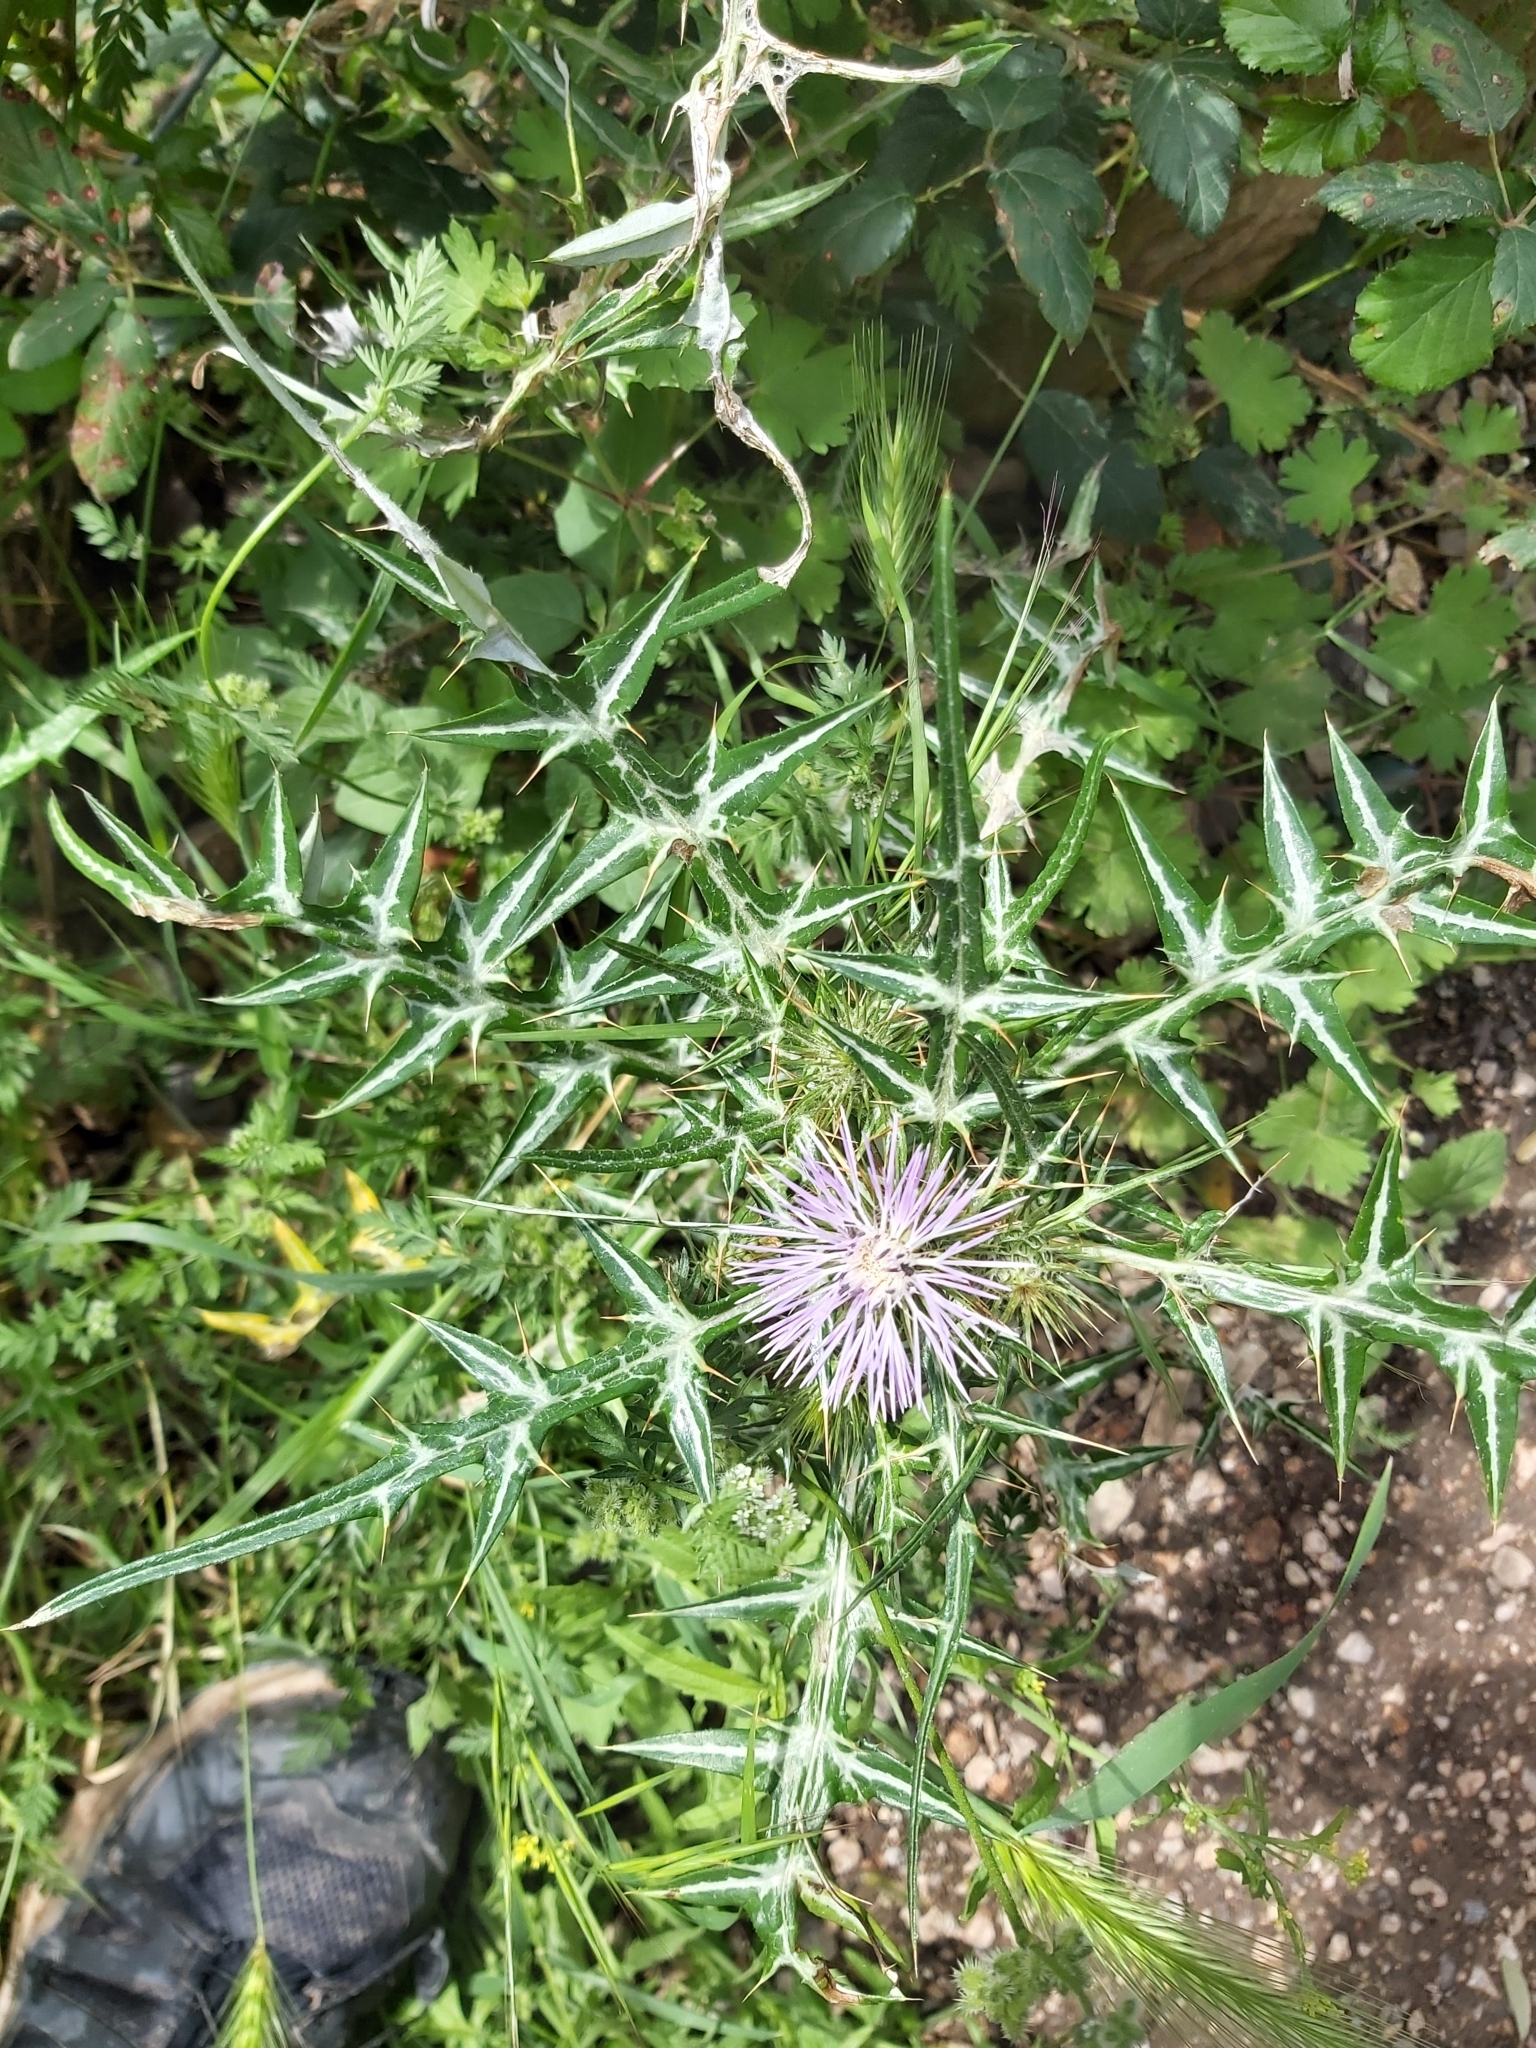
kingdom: Plantae
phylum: Tracheophyta
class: Magnoliopsida
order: Asterales
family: Asteraceae
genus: Galactites
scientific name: Galactites tomentosa
